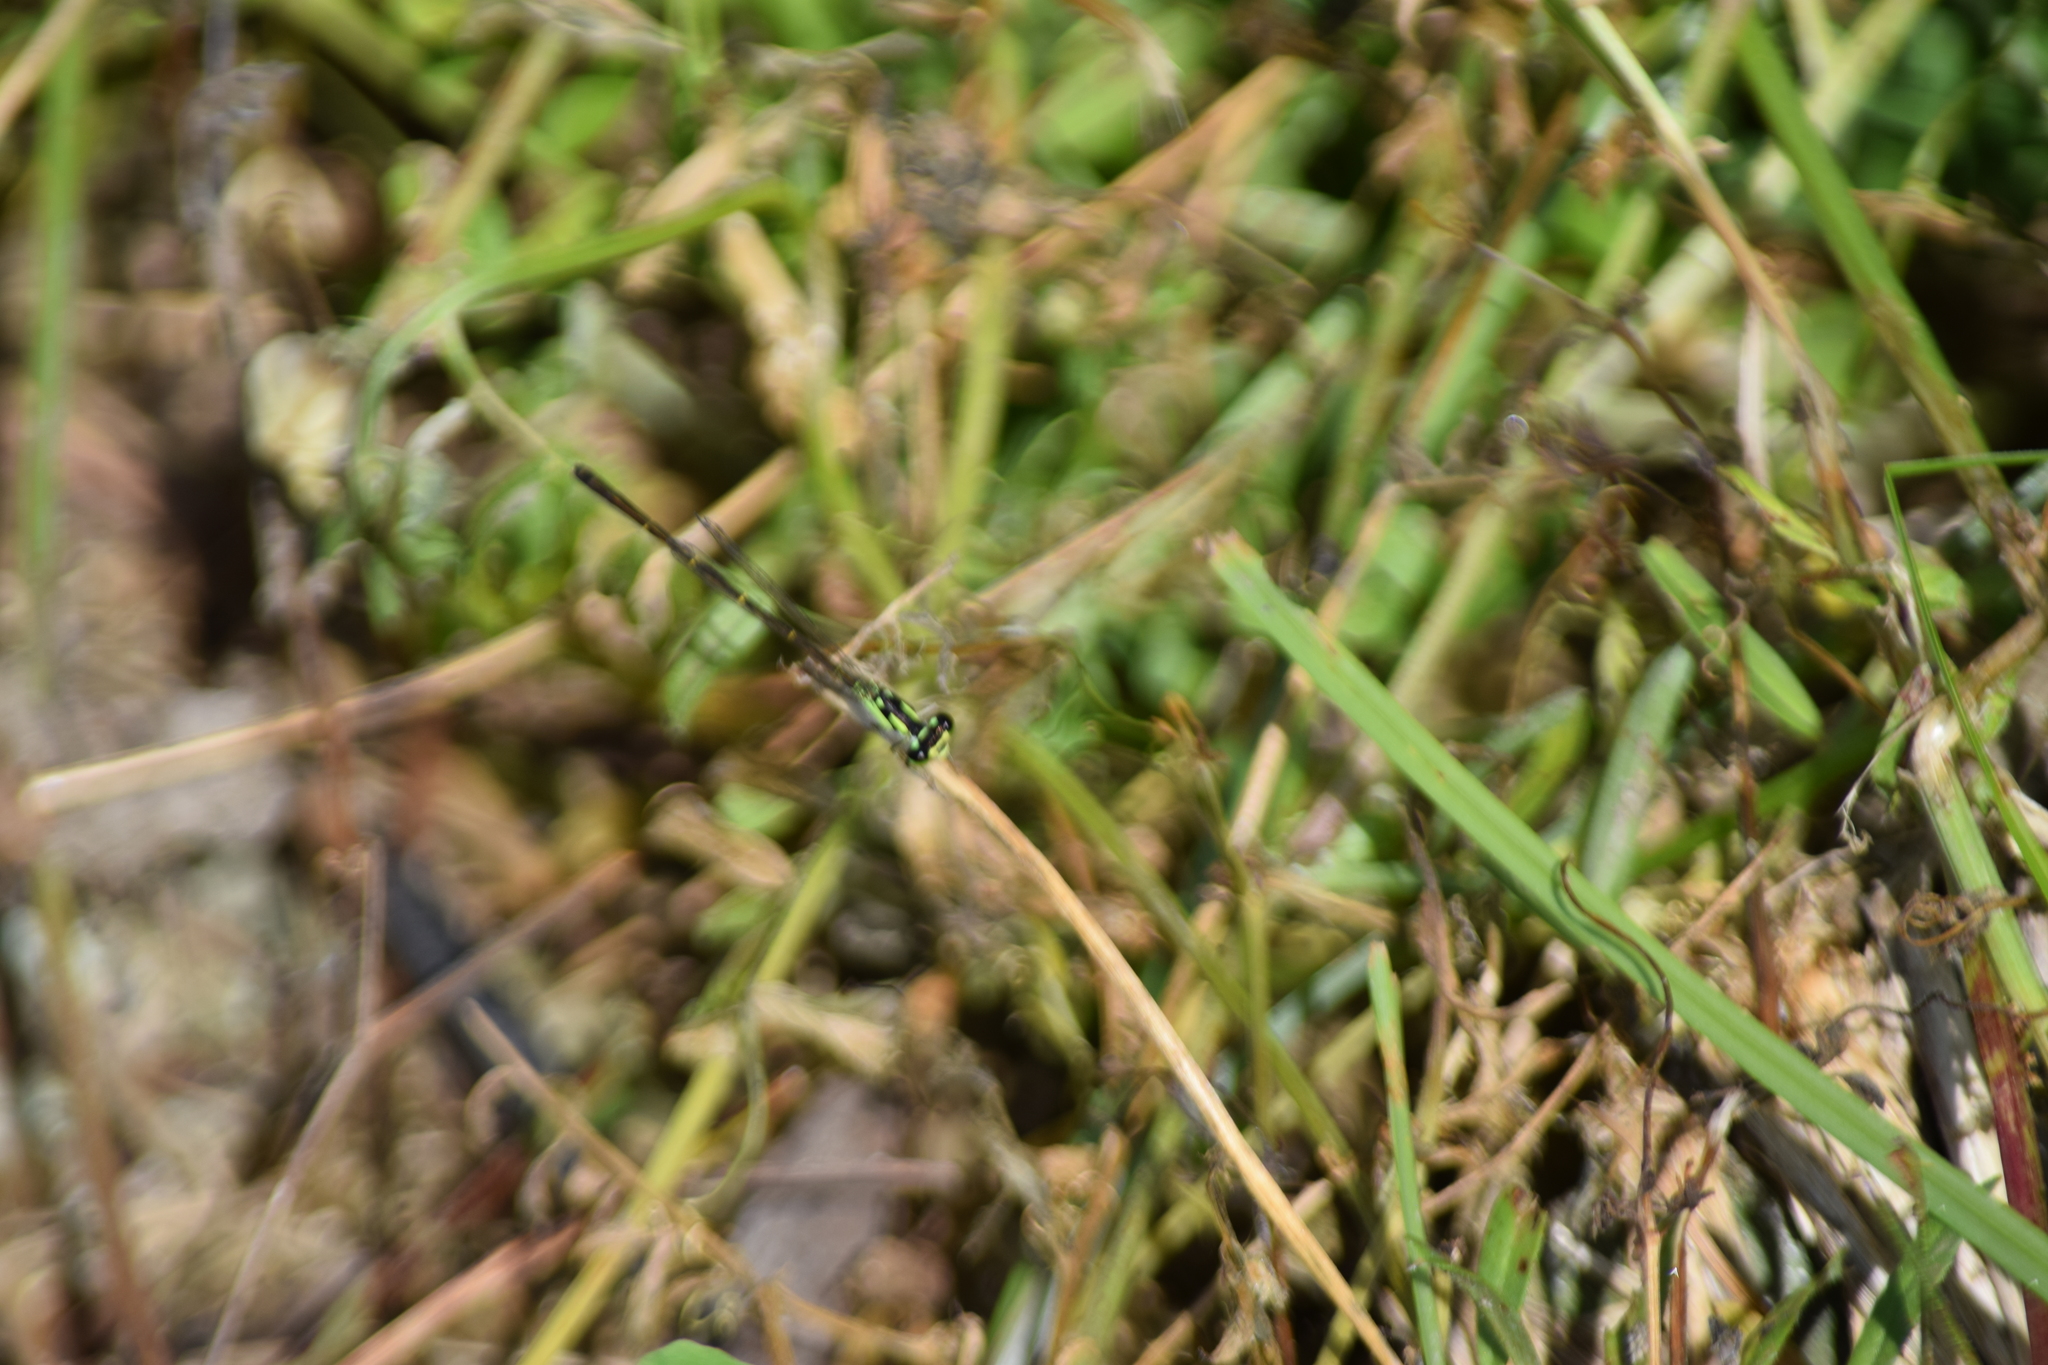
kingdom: Animalia
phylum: Arthropoda
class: Insecta
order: Odonata
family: Coenagrionidae
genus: Ischnura
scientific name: Ischnura posita
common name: Fragile forktail
